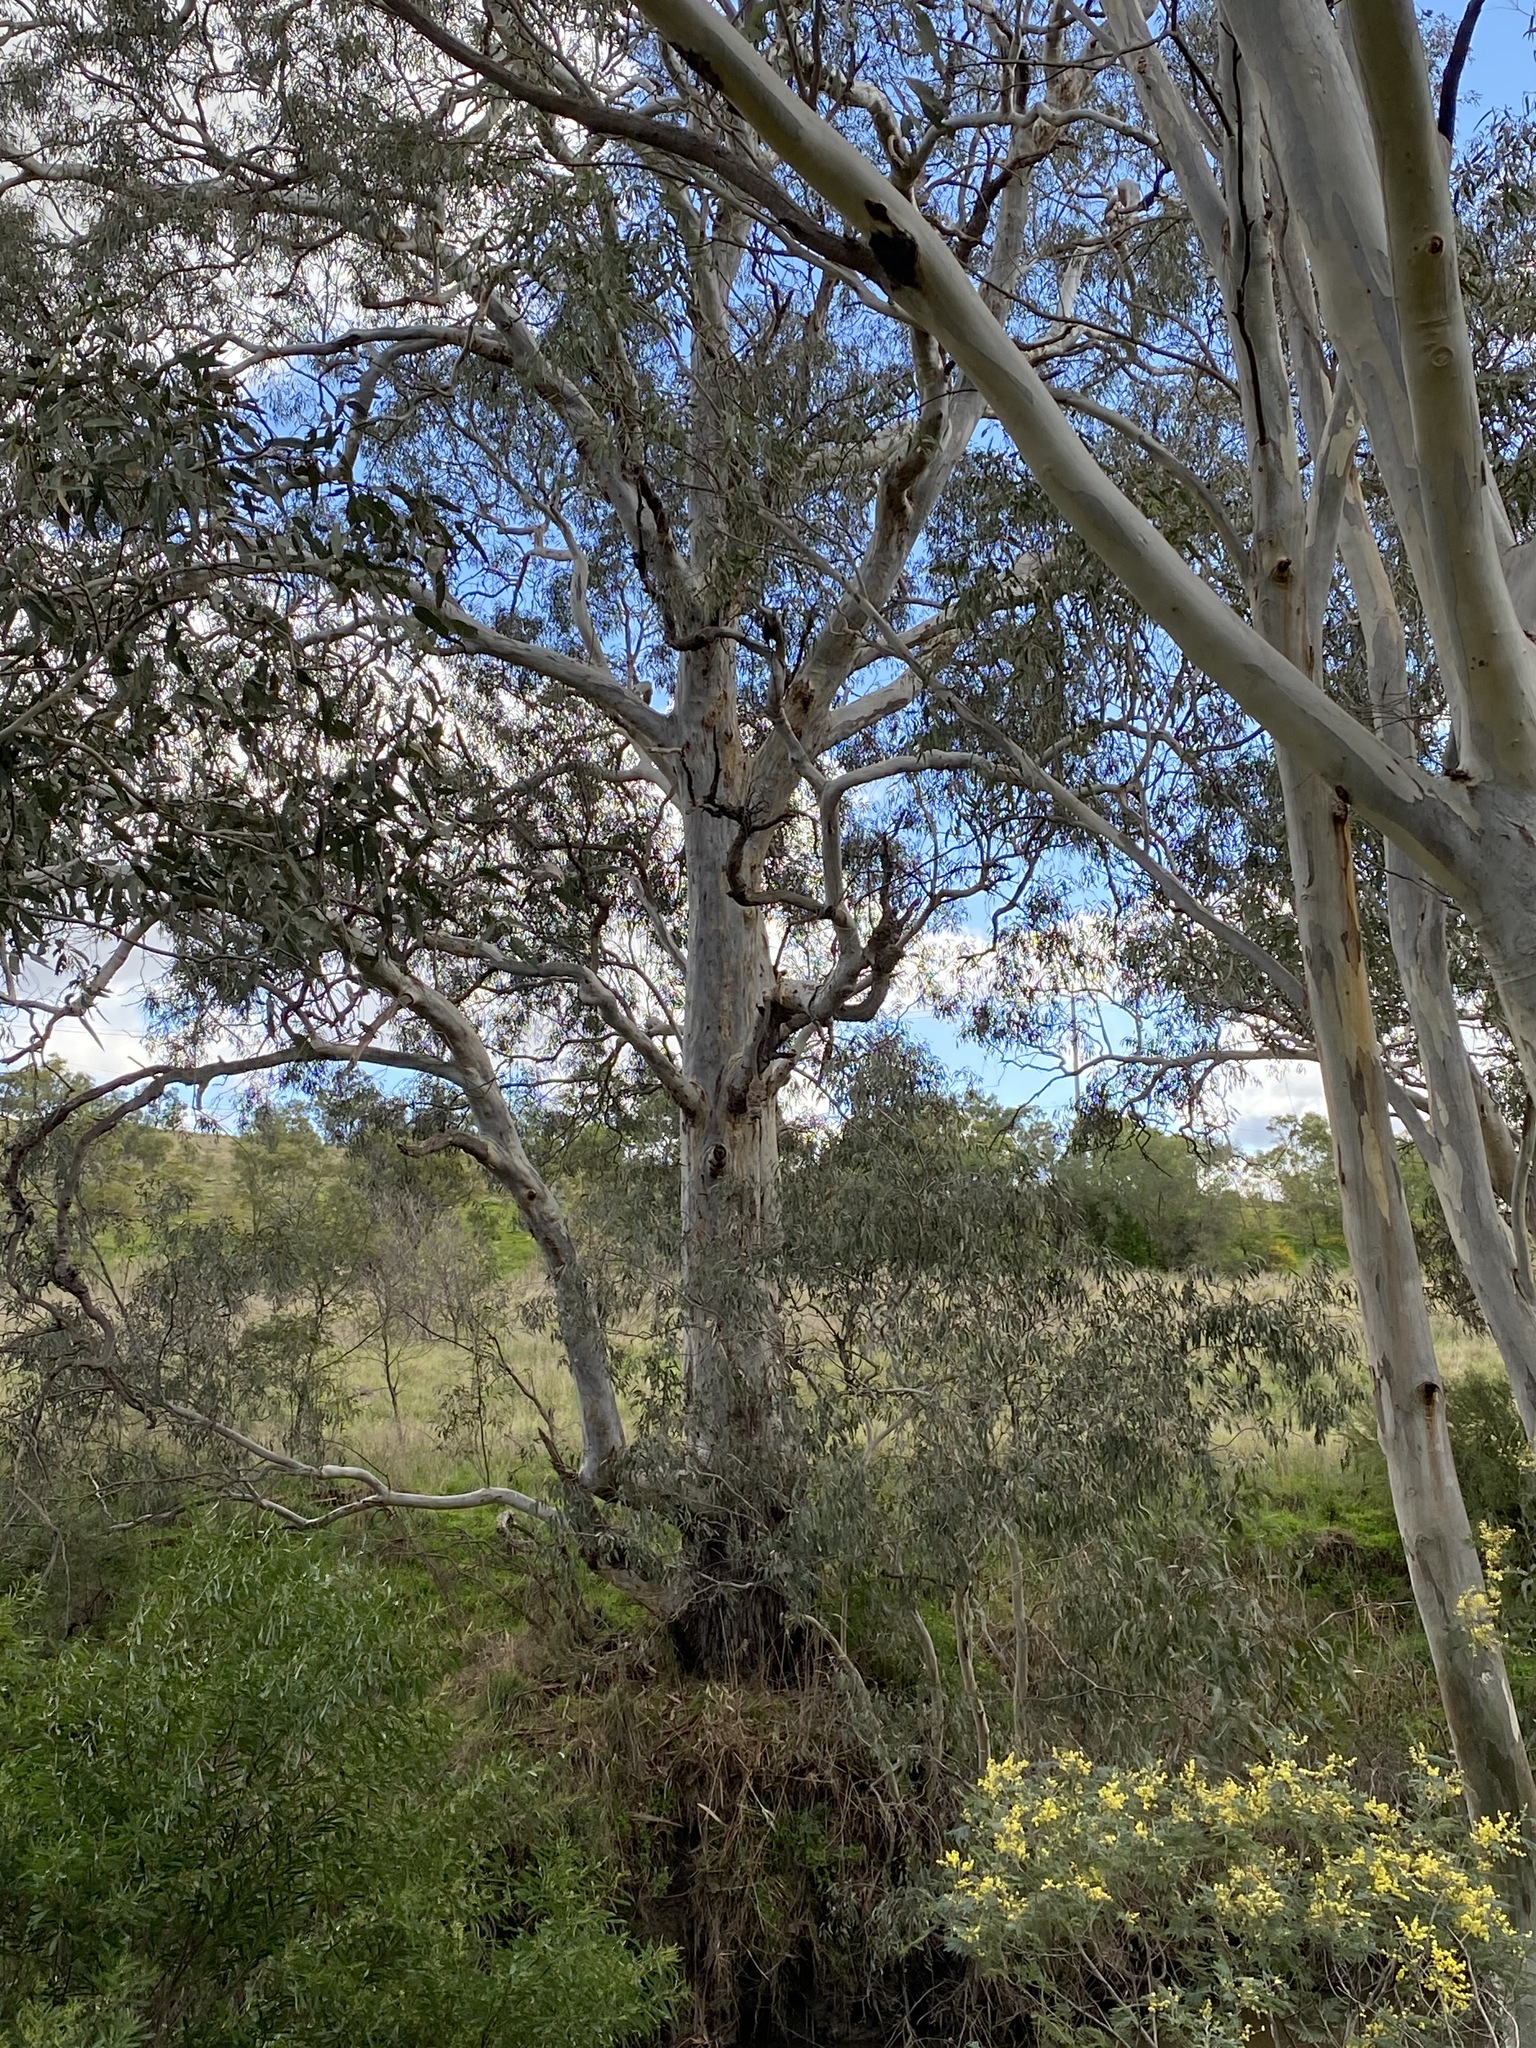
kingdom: Plantae
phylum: Tracheophyta
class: Magnoliopsida
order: Myrtales
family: Myrtaceae
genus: Eucalyptus
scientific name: Eucalyptus camaldulensis
